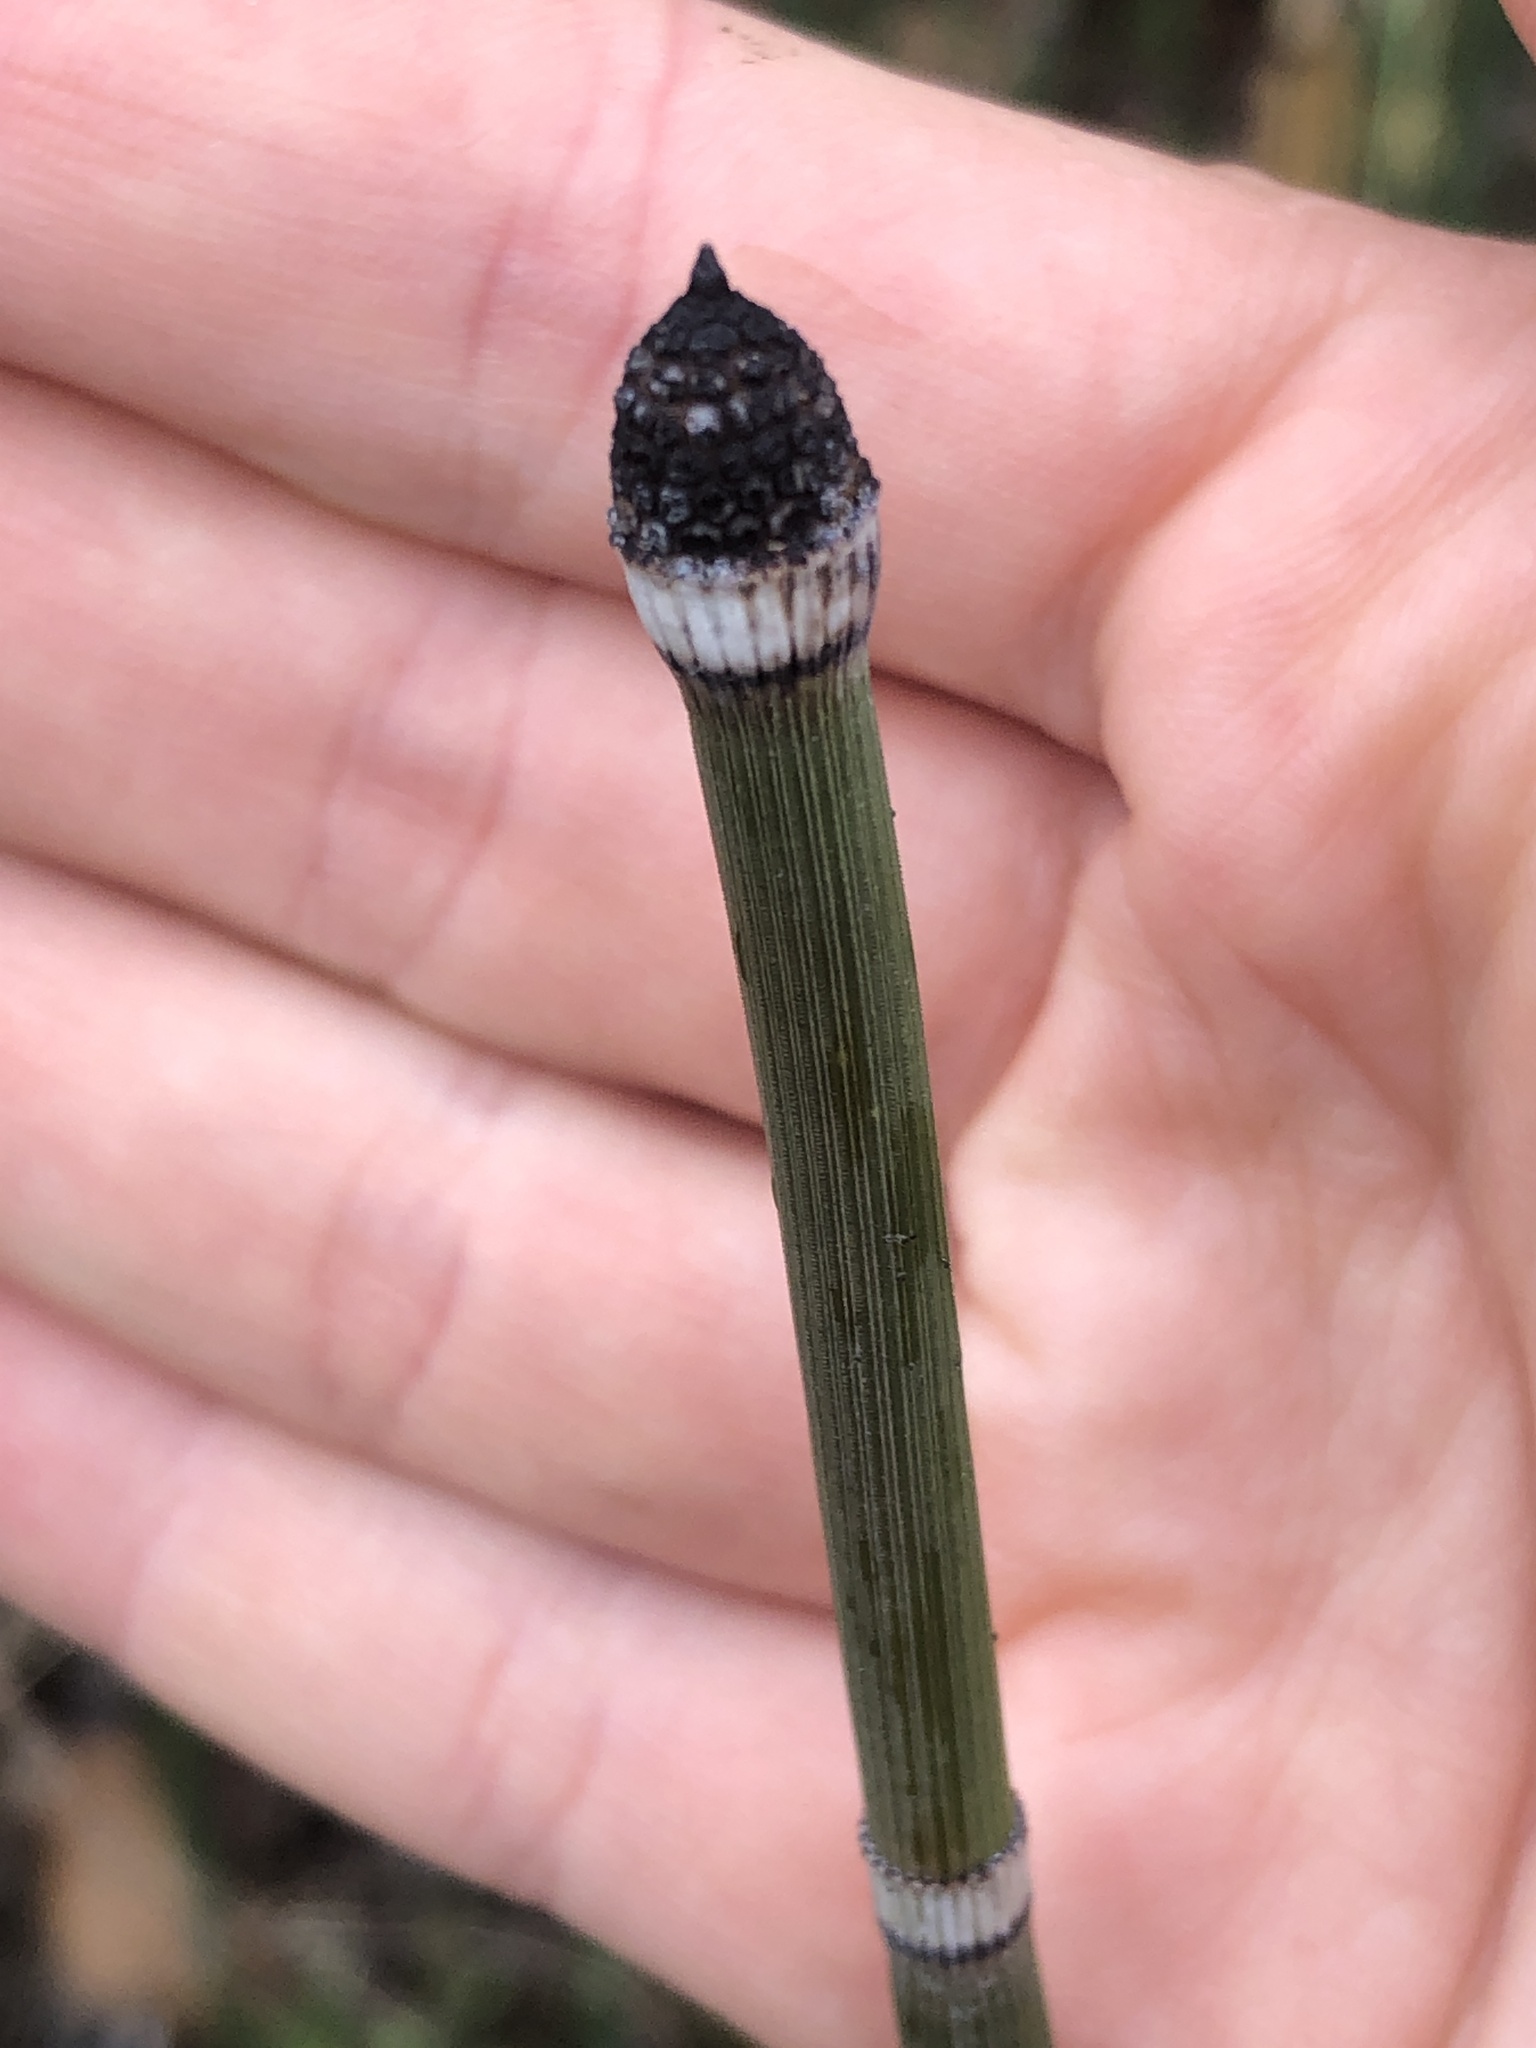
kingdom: Plantae
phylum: Tracheophyta
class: Polypodiopsida
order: Equisetales
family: Equisetaceae
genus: Equisetum
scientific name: Equisetum hyemale
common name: Rough horsetail
